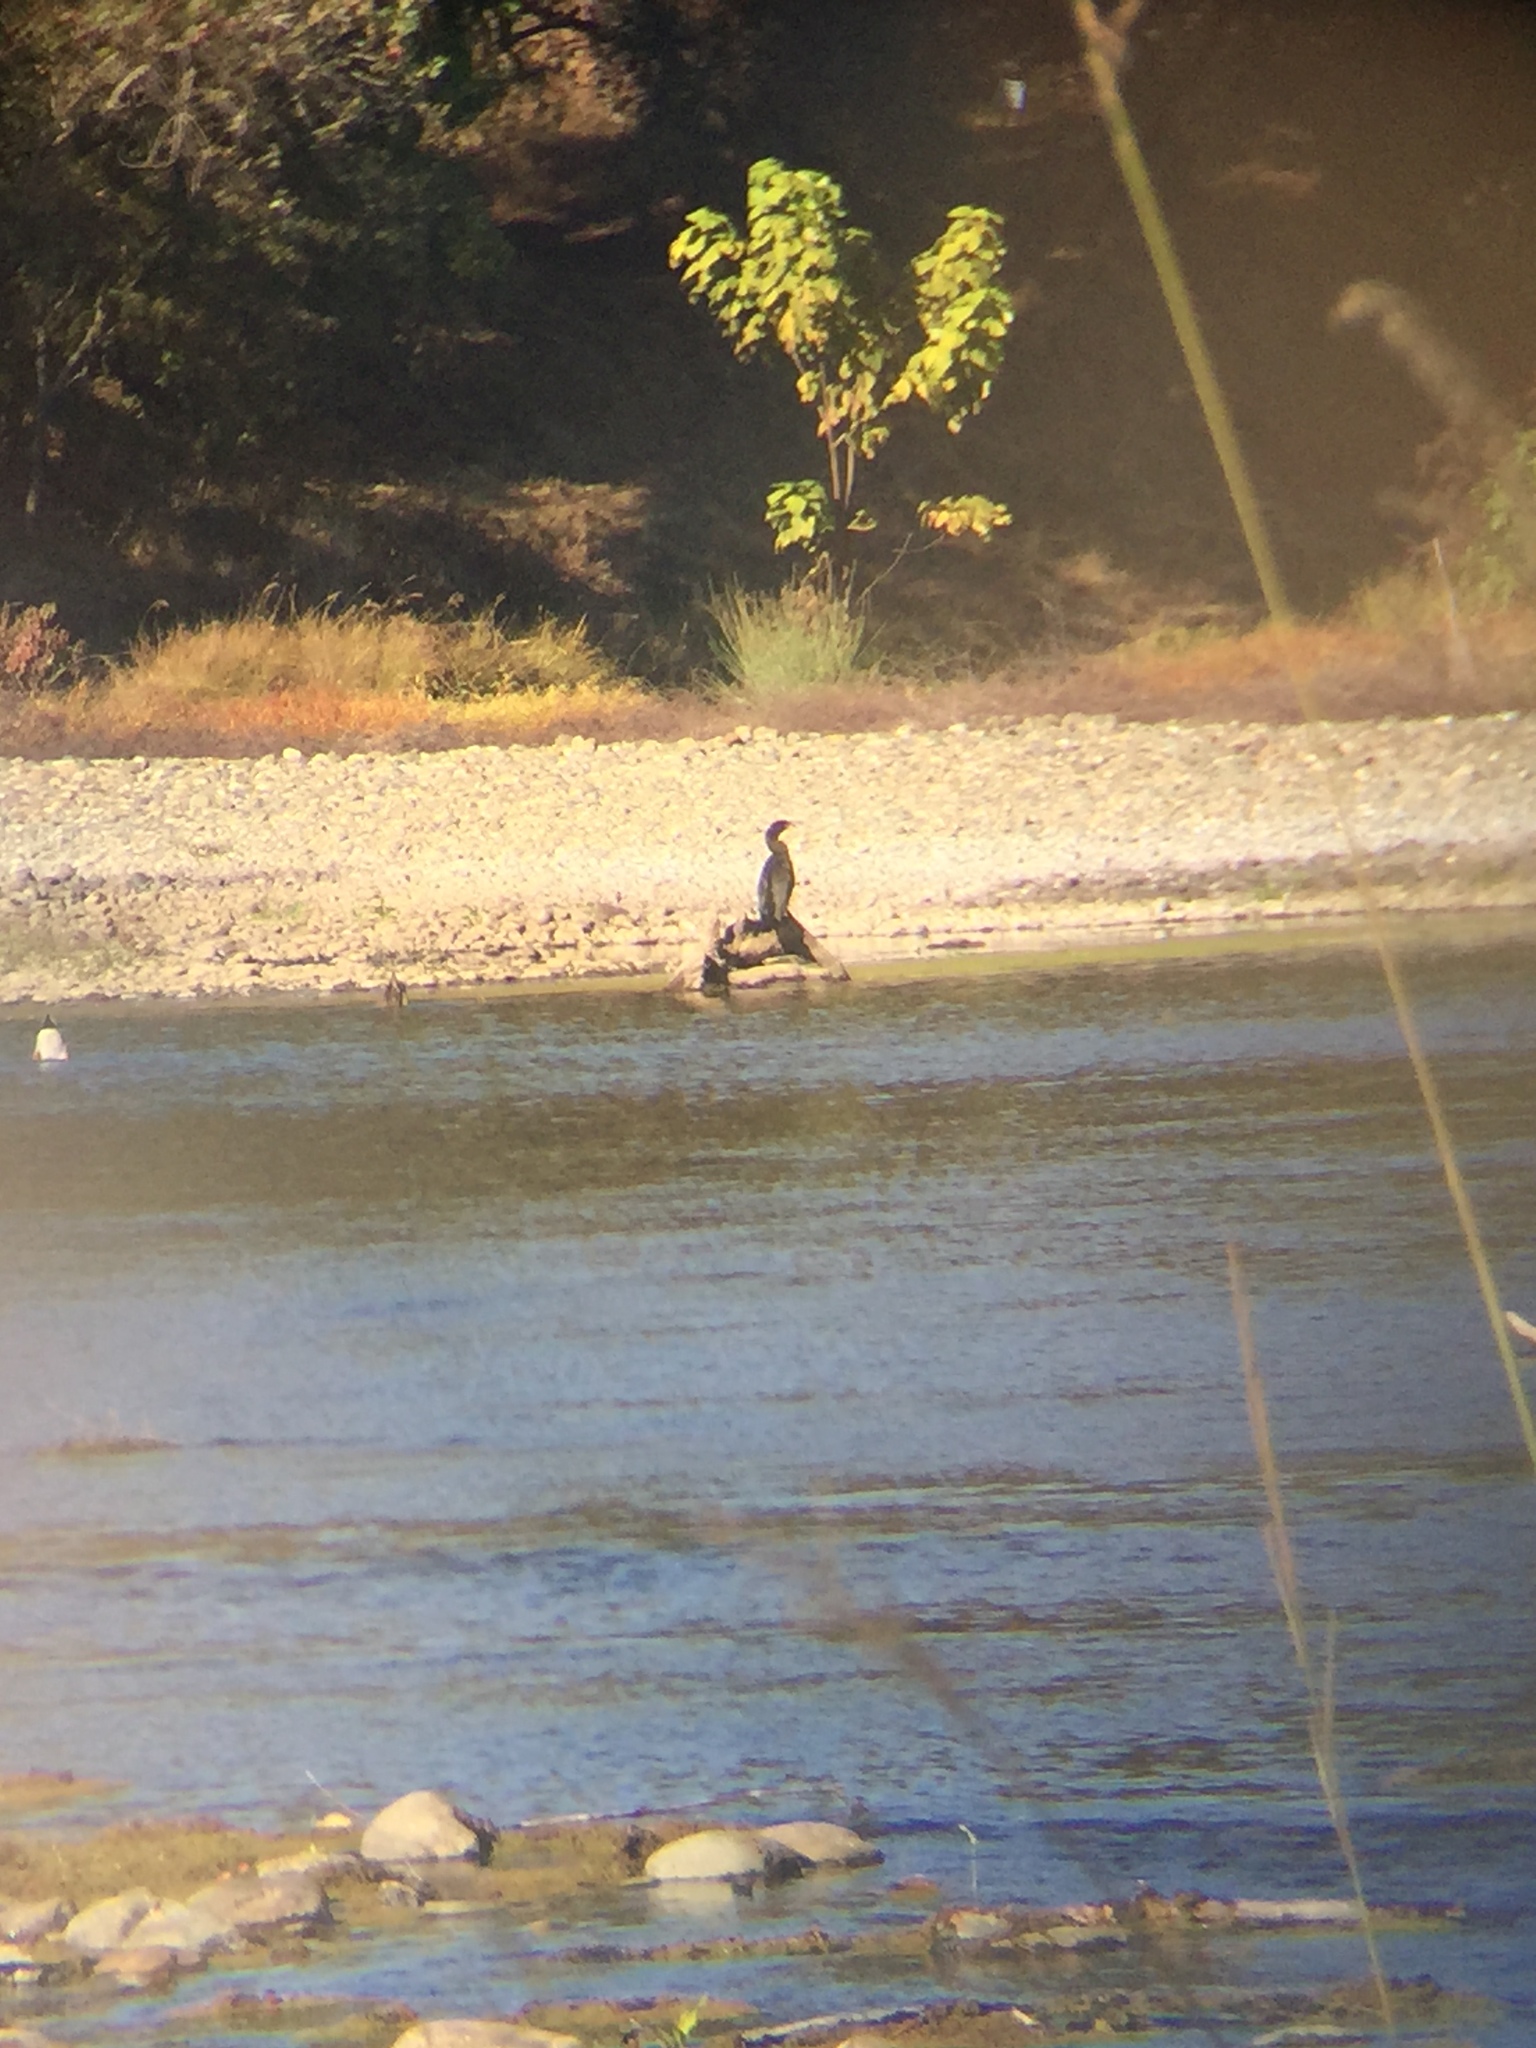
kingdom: Animalia
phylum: Chordata
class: Aves
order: Suliformes
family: Phalacrocoracidae
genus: Phalacrocorax
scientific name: Phalacrocorax auritus
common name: Double-crested cormorant
